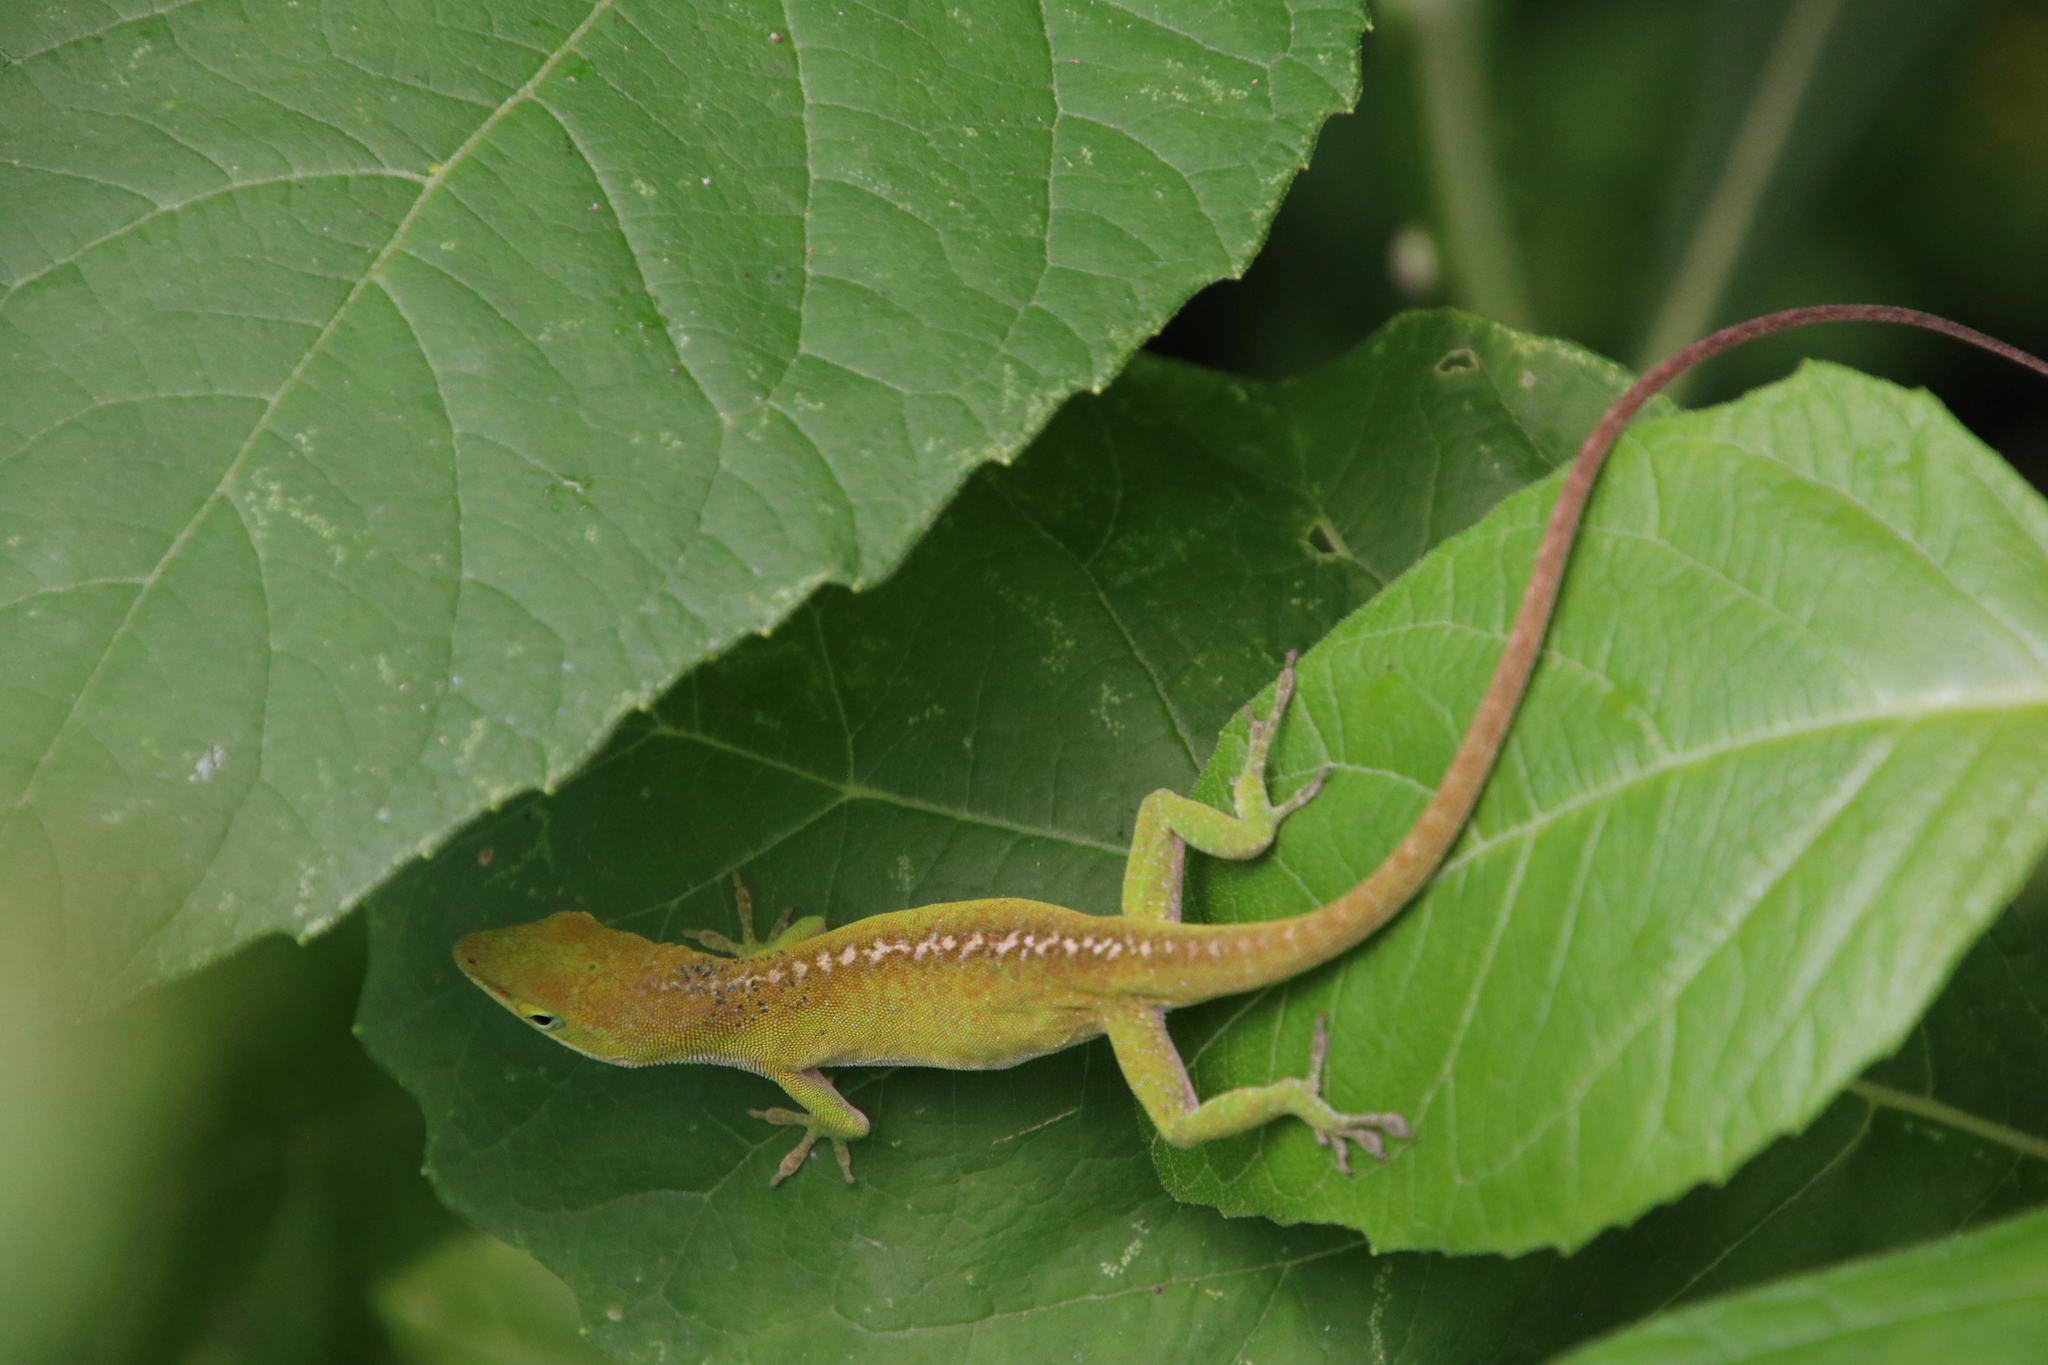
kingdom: Animalia
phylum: Chordata
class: Squamata
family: Dactyloidae
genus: Anolis
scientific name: Anolis carolinensis
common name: Green anole
